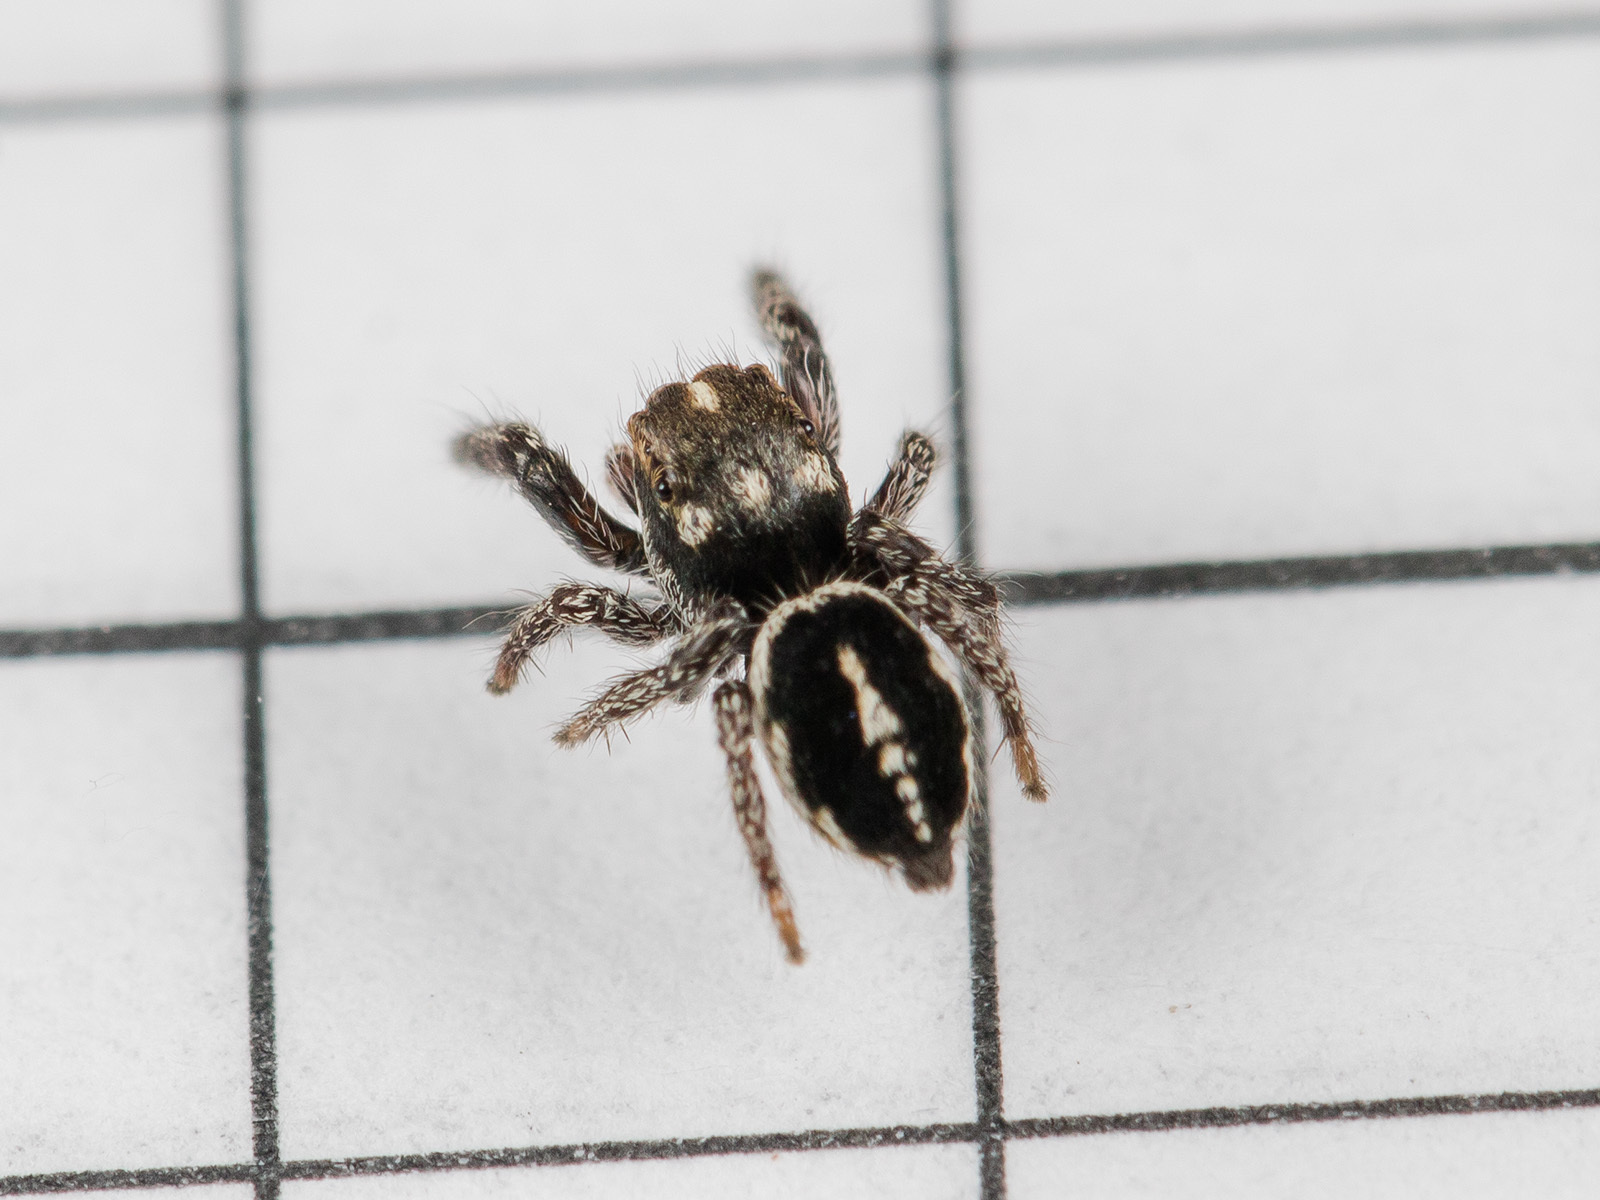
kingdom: Animalia
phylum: Arthropoda
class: Arachnida
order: Araneae
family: Salticidae
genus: Pellenes
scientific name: Pellenes allegrii
